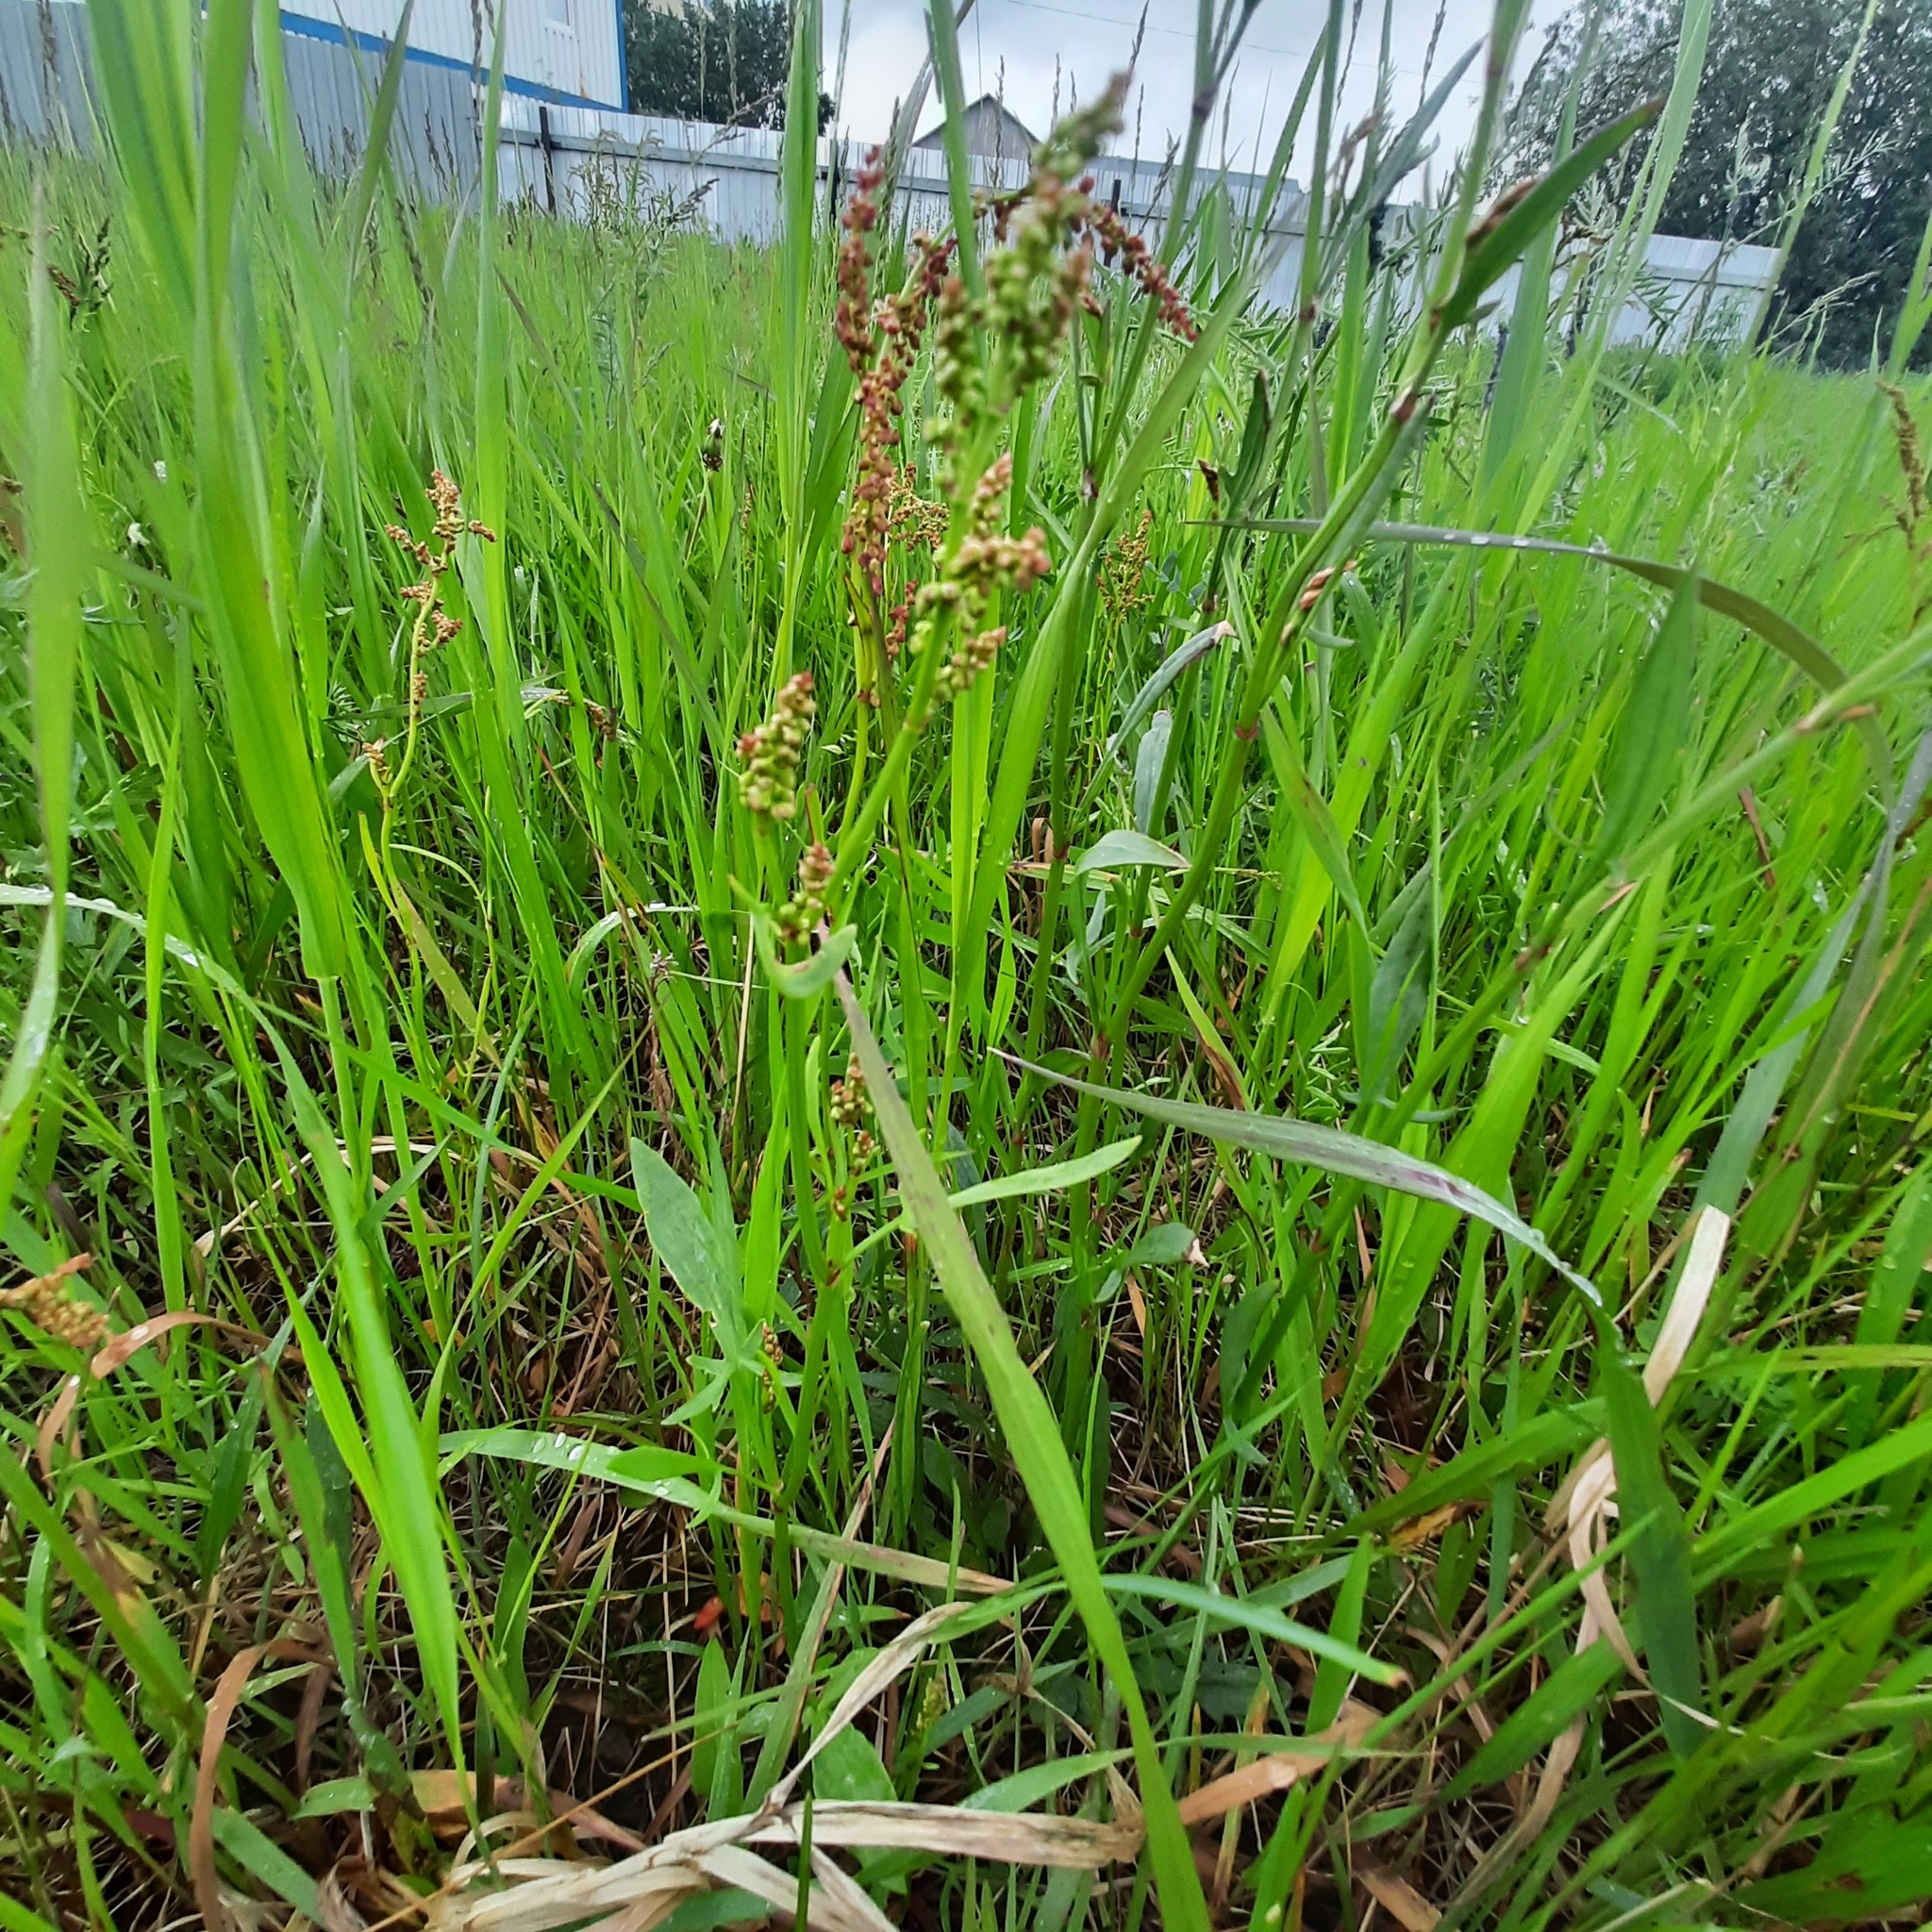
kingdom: Plantae
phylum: Tracheophyta
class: Magnoliopsida
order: Caryophyllales
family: Polygonaceae
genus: Rumex
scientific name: Rumex acetosella
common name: Common sheep sorrel
